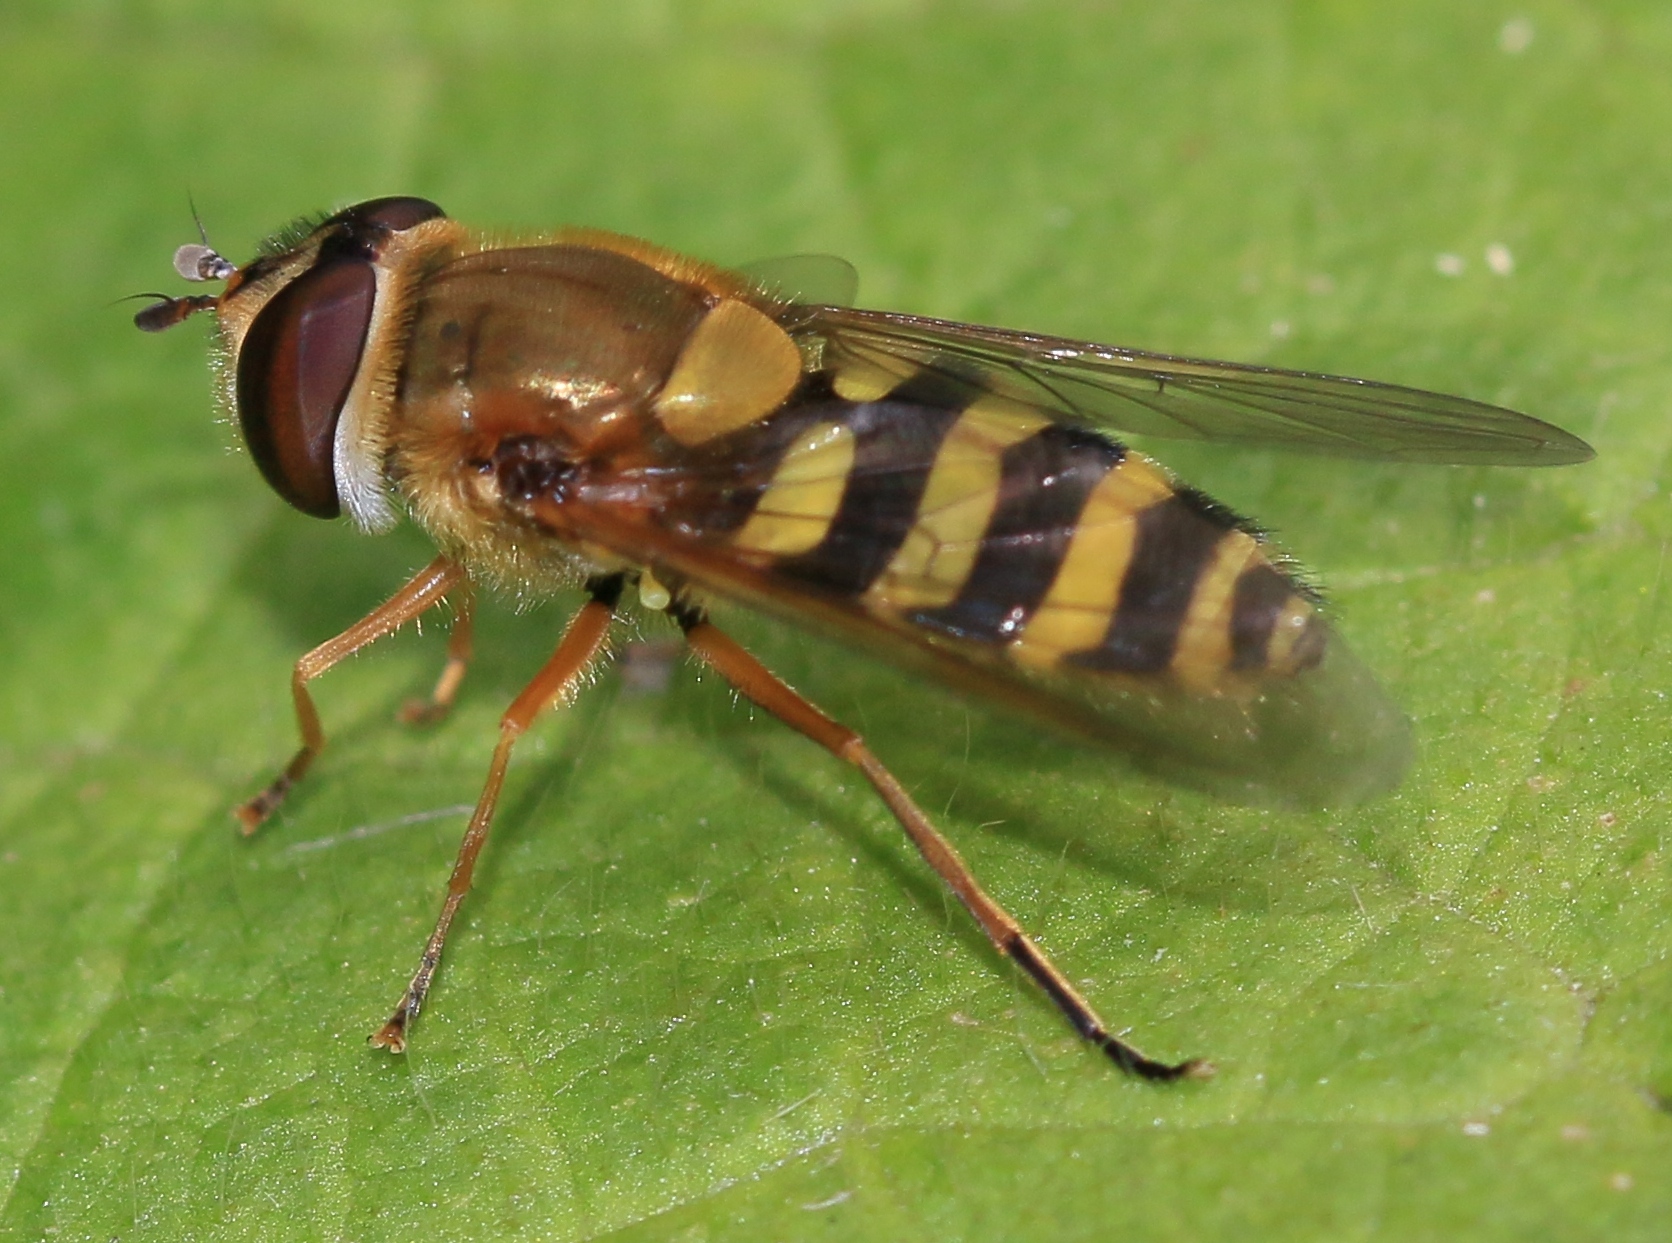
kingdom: Animalia
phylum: Arthropoda
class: Insecta
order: Diptera
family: Syrphidae
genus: Syrphus
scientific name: Syrphus ribesii
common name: Common flower fly
